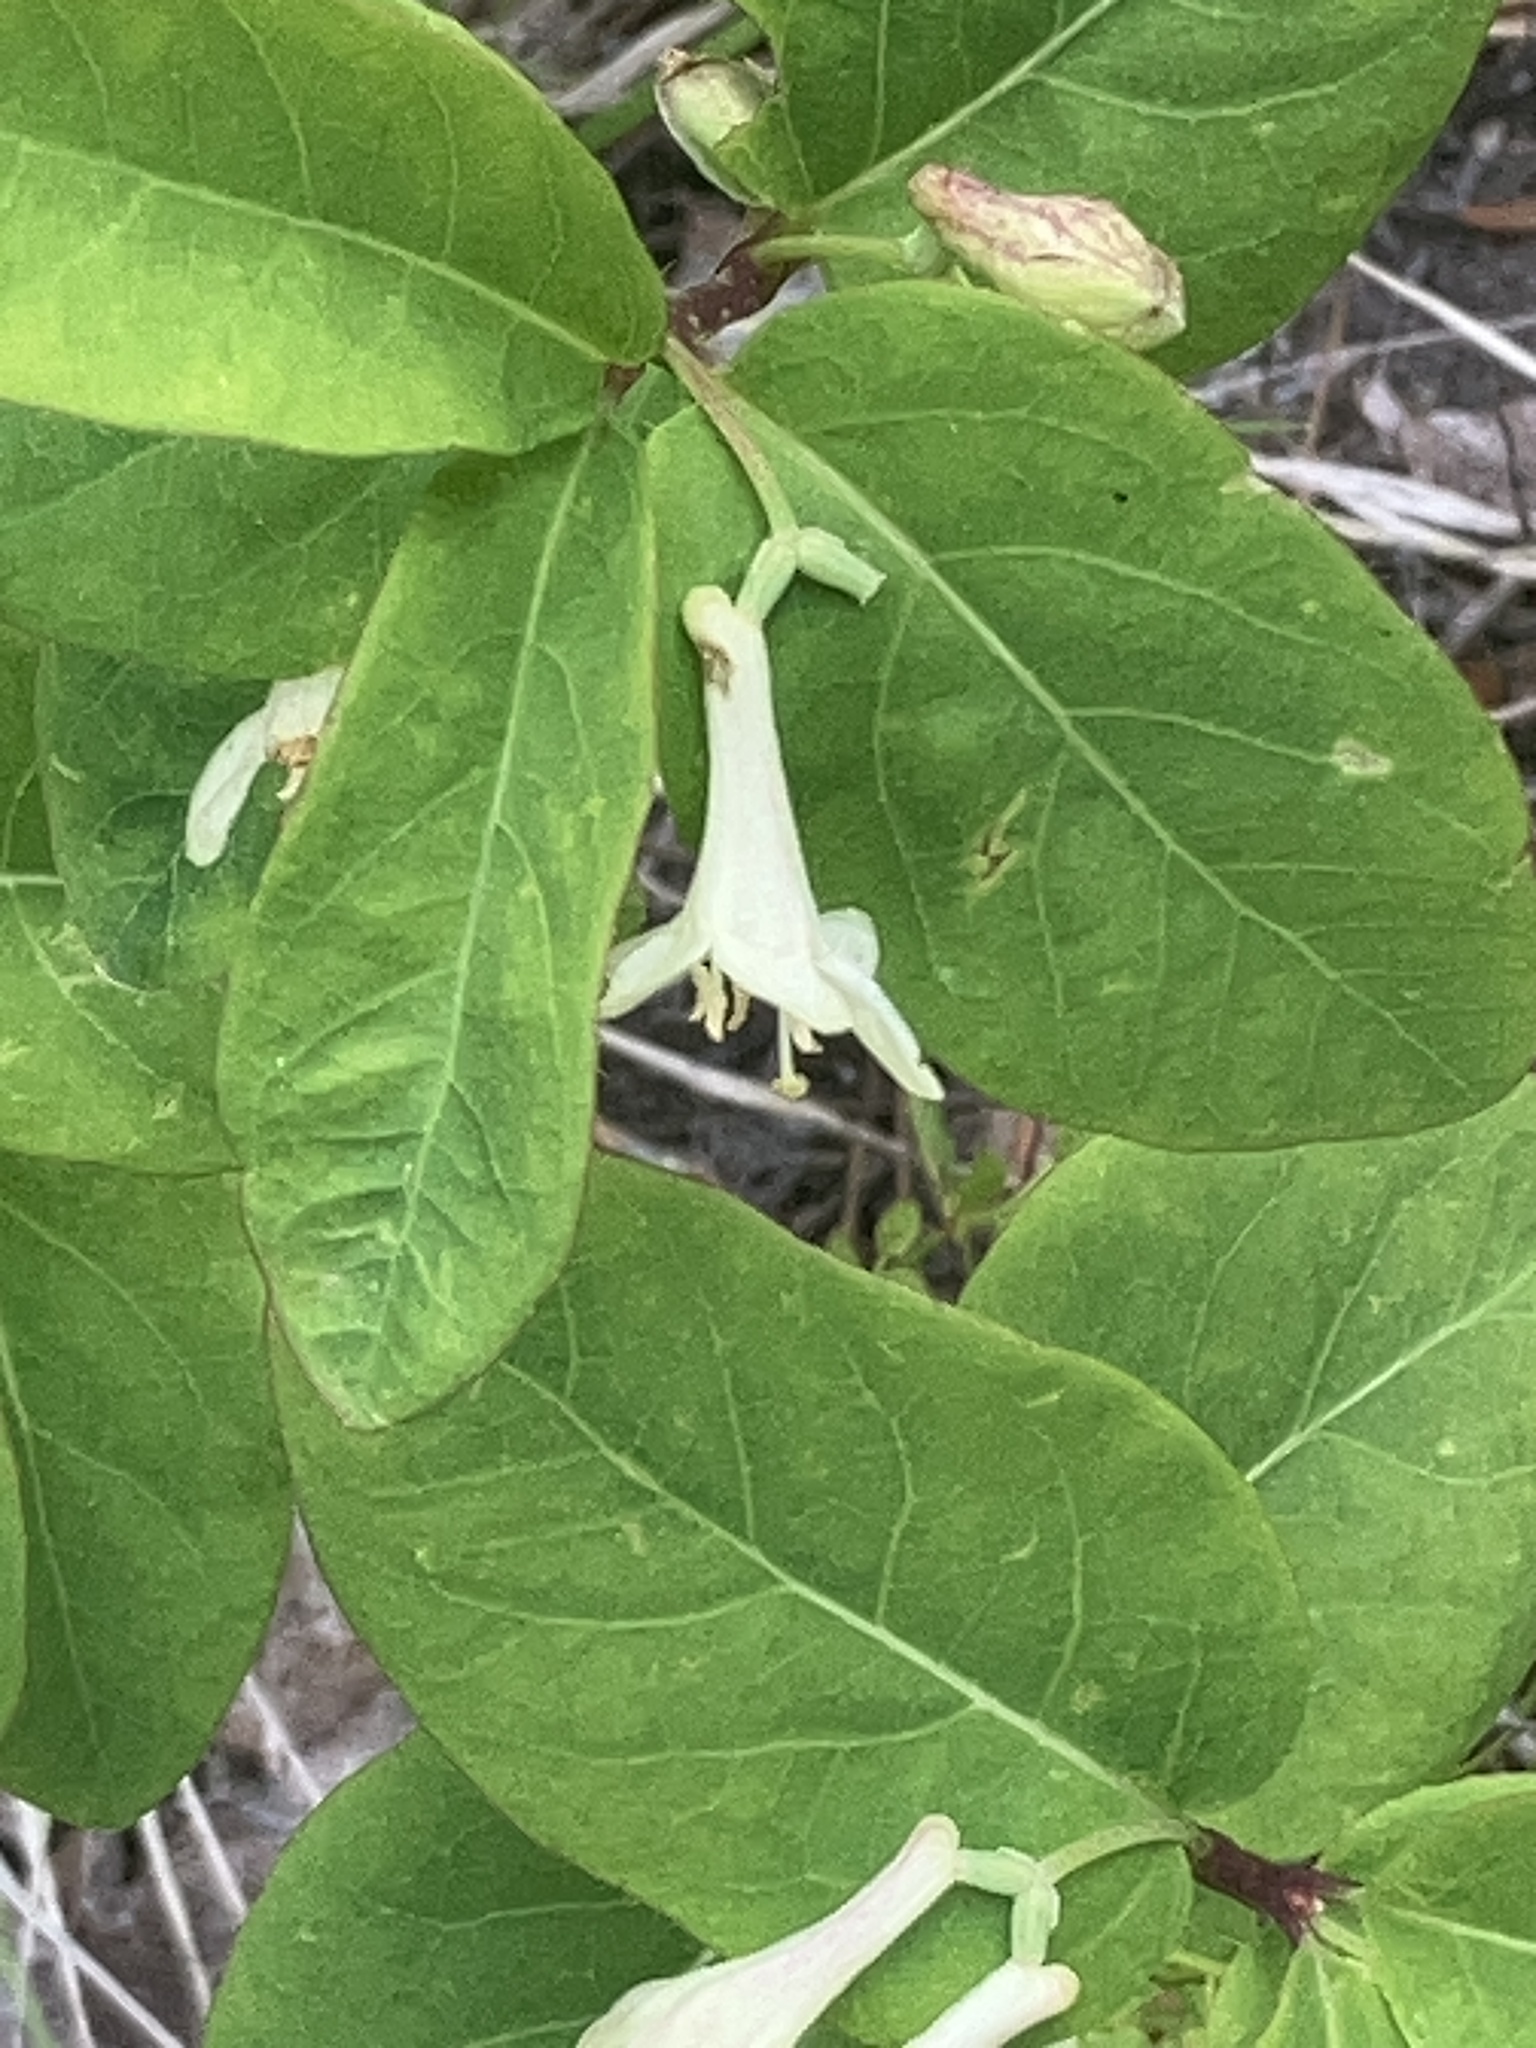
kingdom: Plantae
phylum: Tracheophyta
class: Magnoliopsida
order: Dipsacales
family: Caprifoliaceae
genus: Lonicera
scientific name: Lonicera utahensis
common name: Utah honeysuckle
